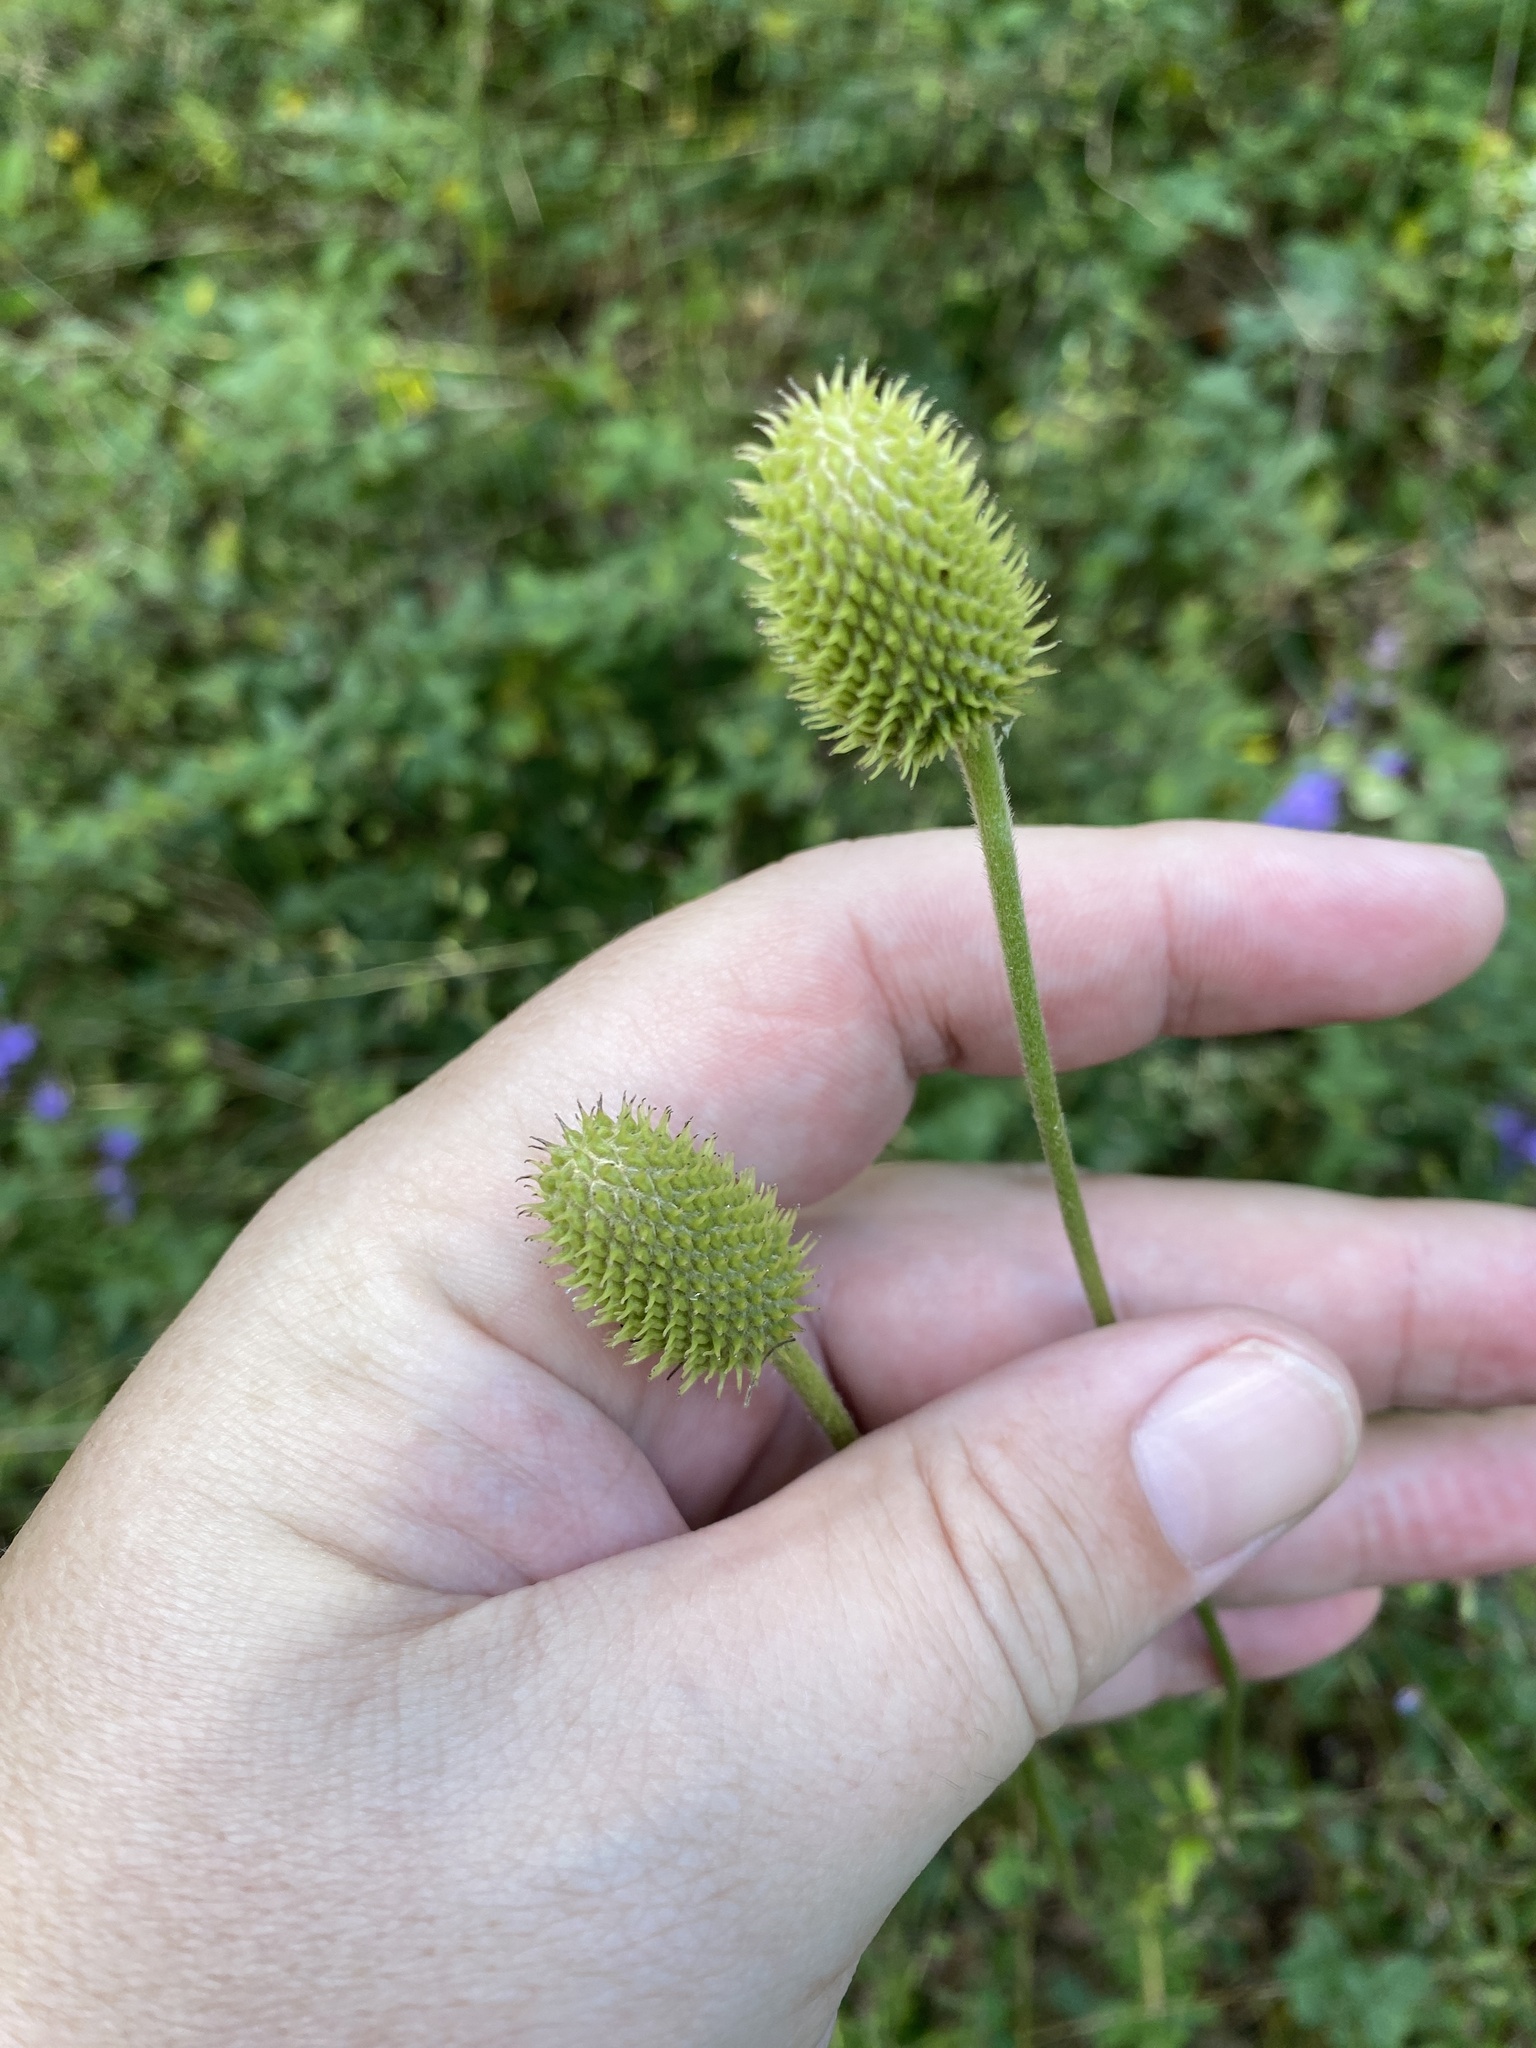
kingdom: Plantae
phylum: Tracheophyta
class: Magnoliopsida
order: Ranunculales
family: Ranunculaceae
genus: Anemone
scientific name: Anemone virginiana
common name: Tall anemone
